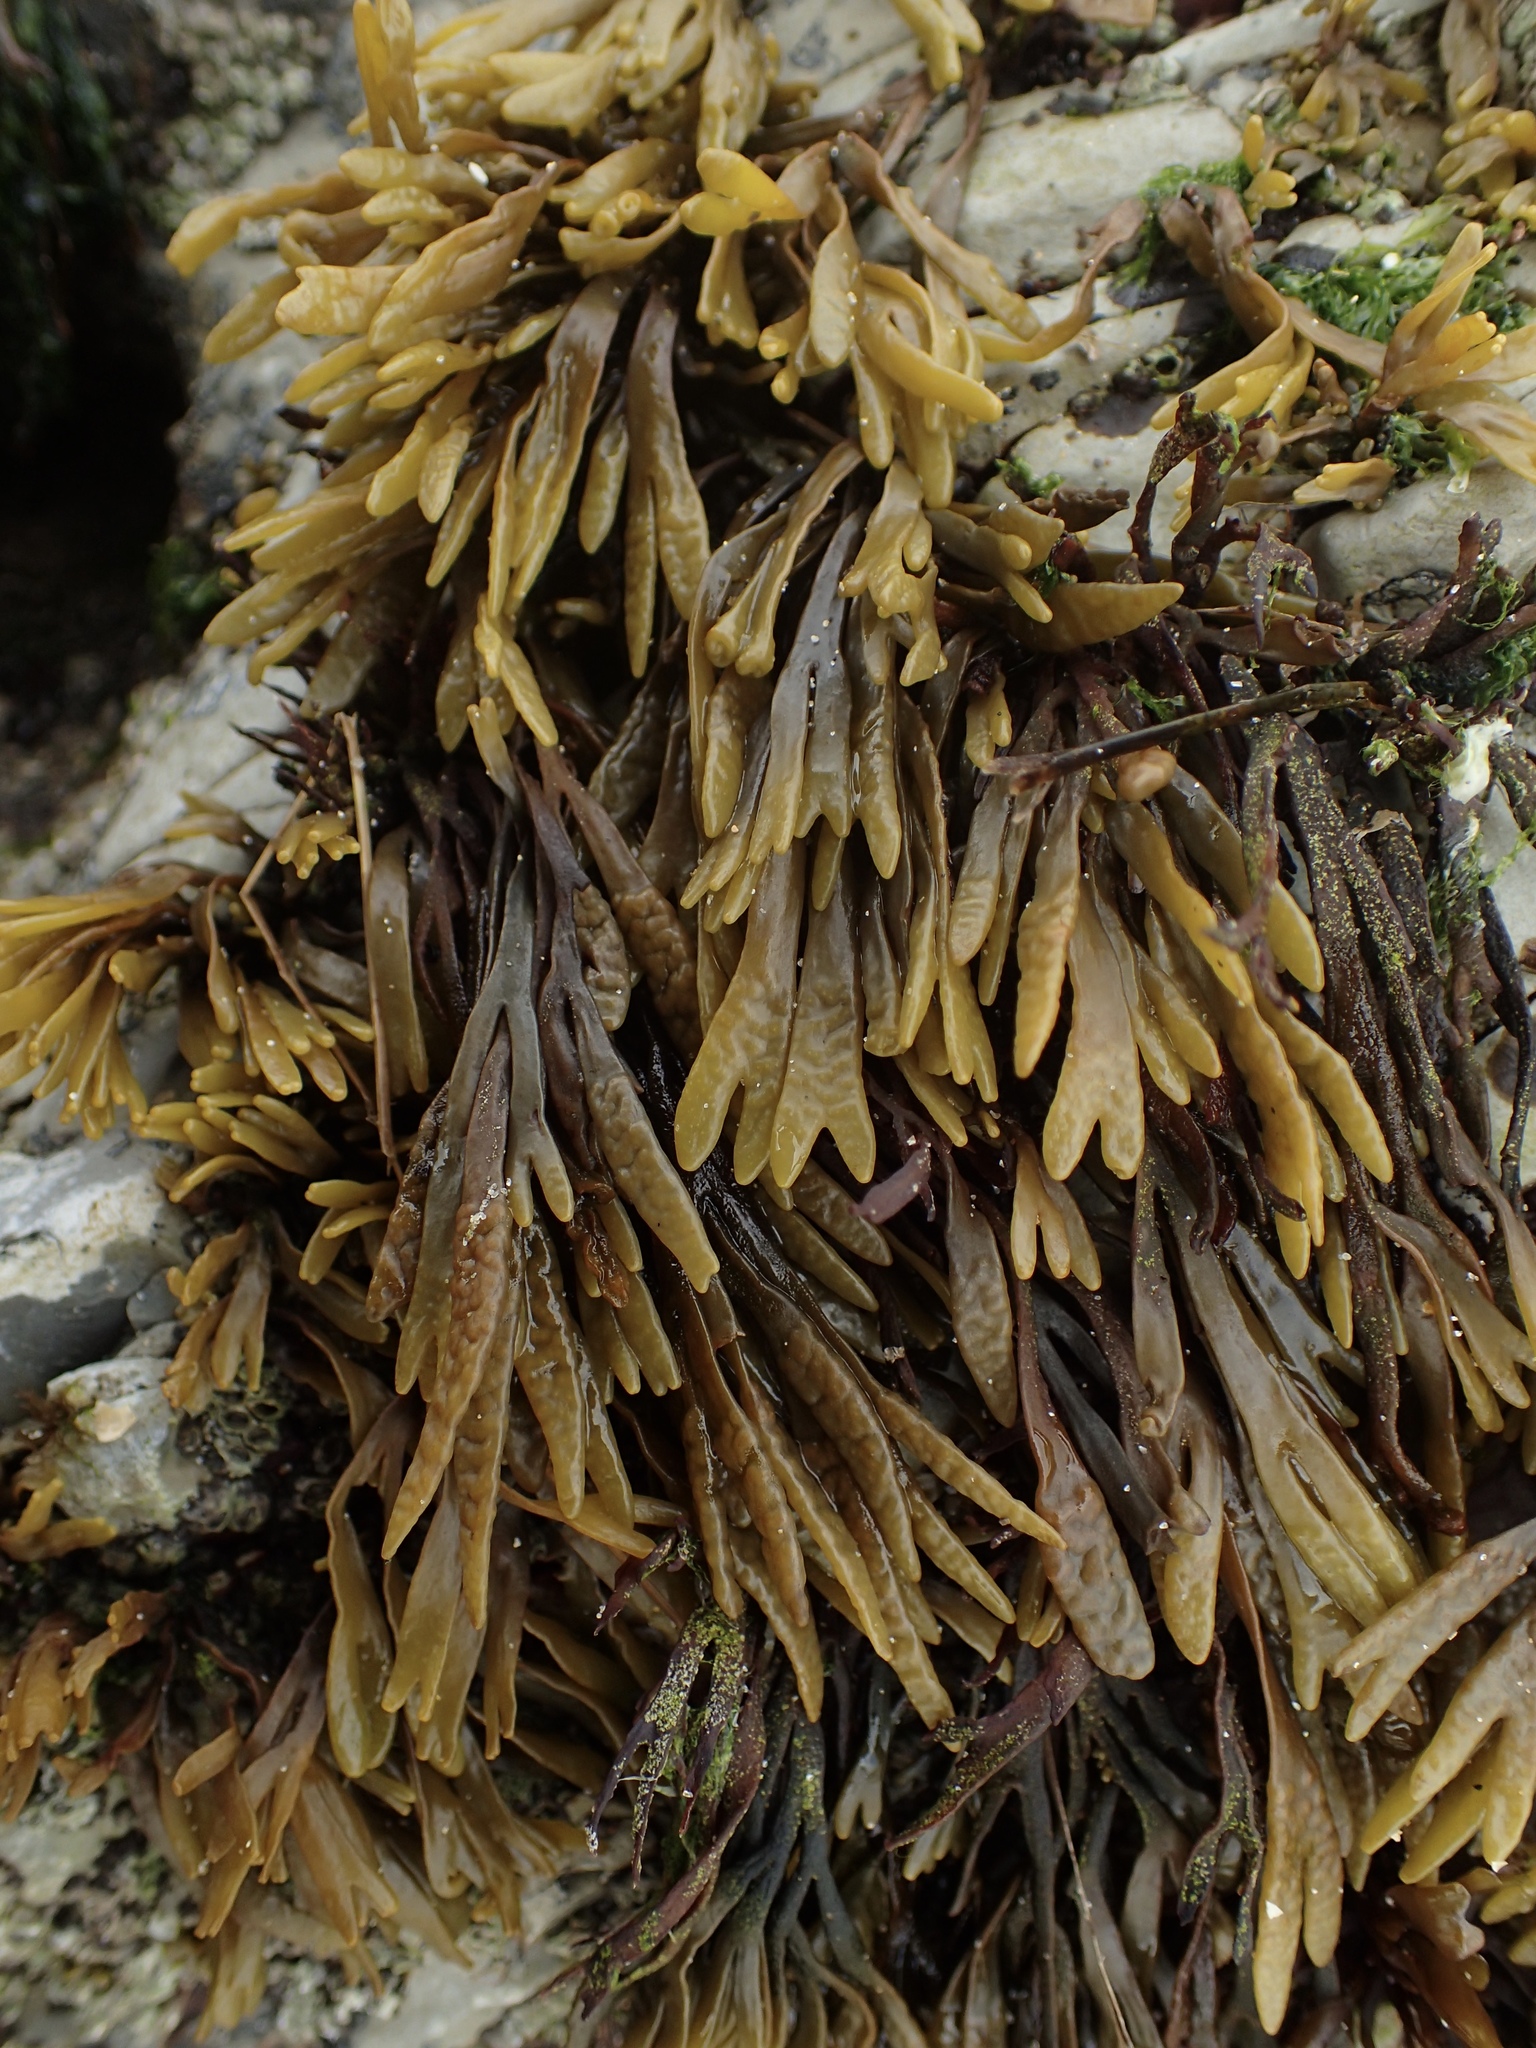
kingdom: Chromista
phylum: Ochrophyta
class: Phaeophyceae
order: Fucales
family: Fucaceae
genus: Pelvetiopsis
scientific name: Pelvetiopsis limitata
